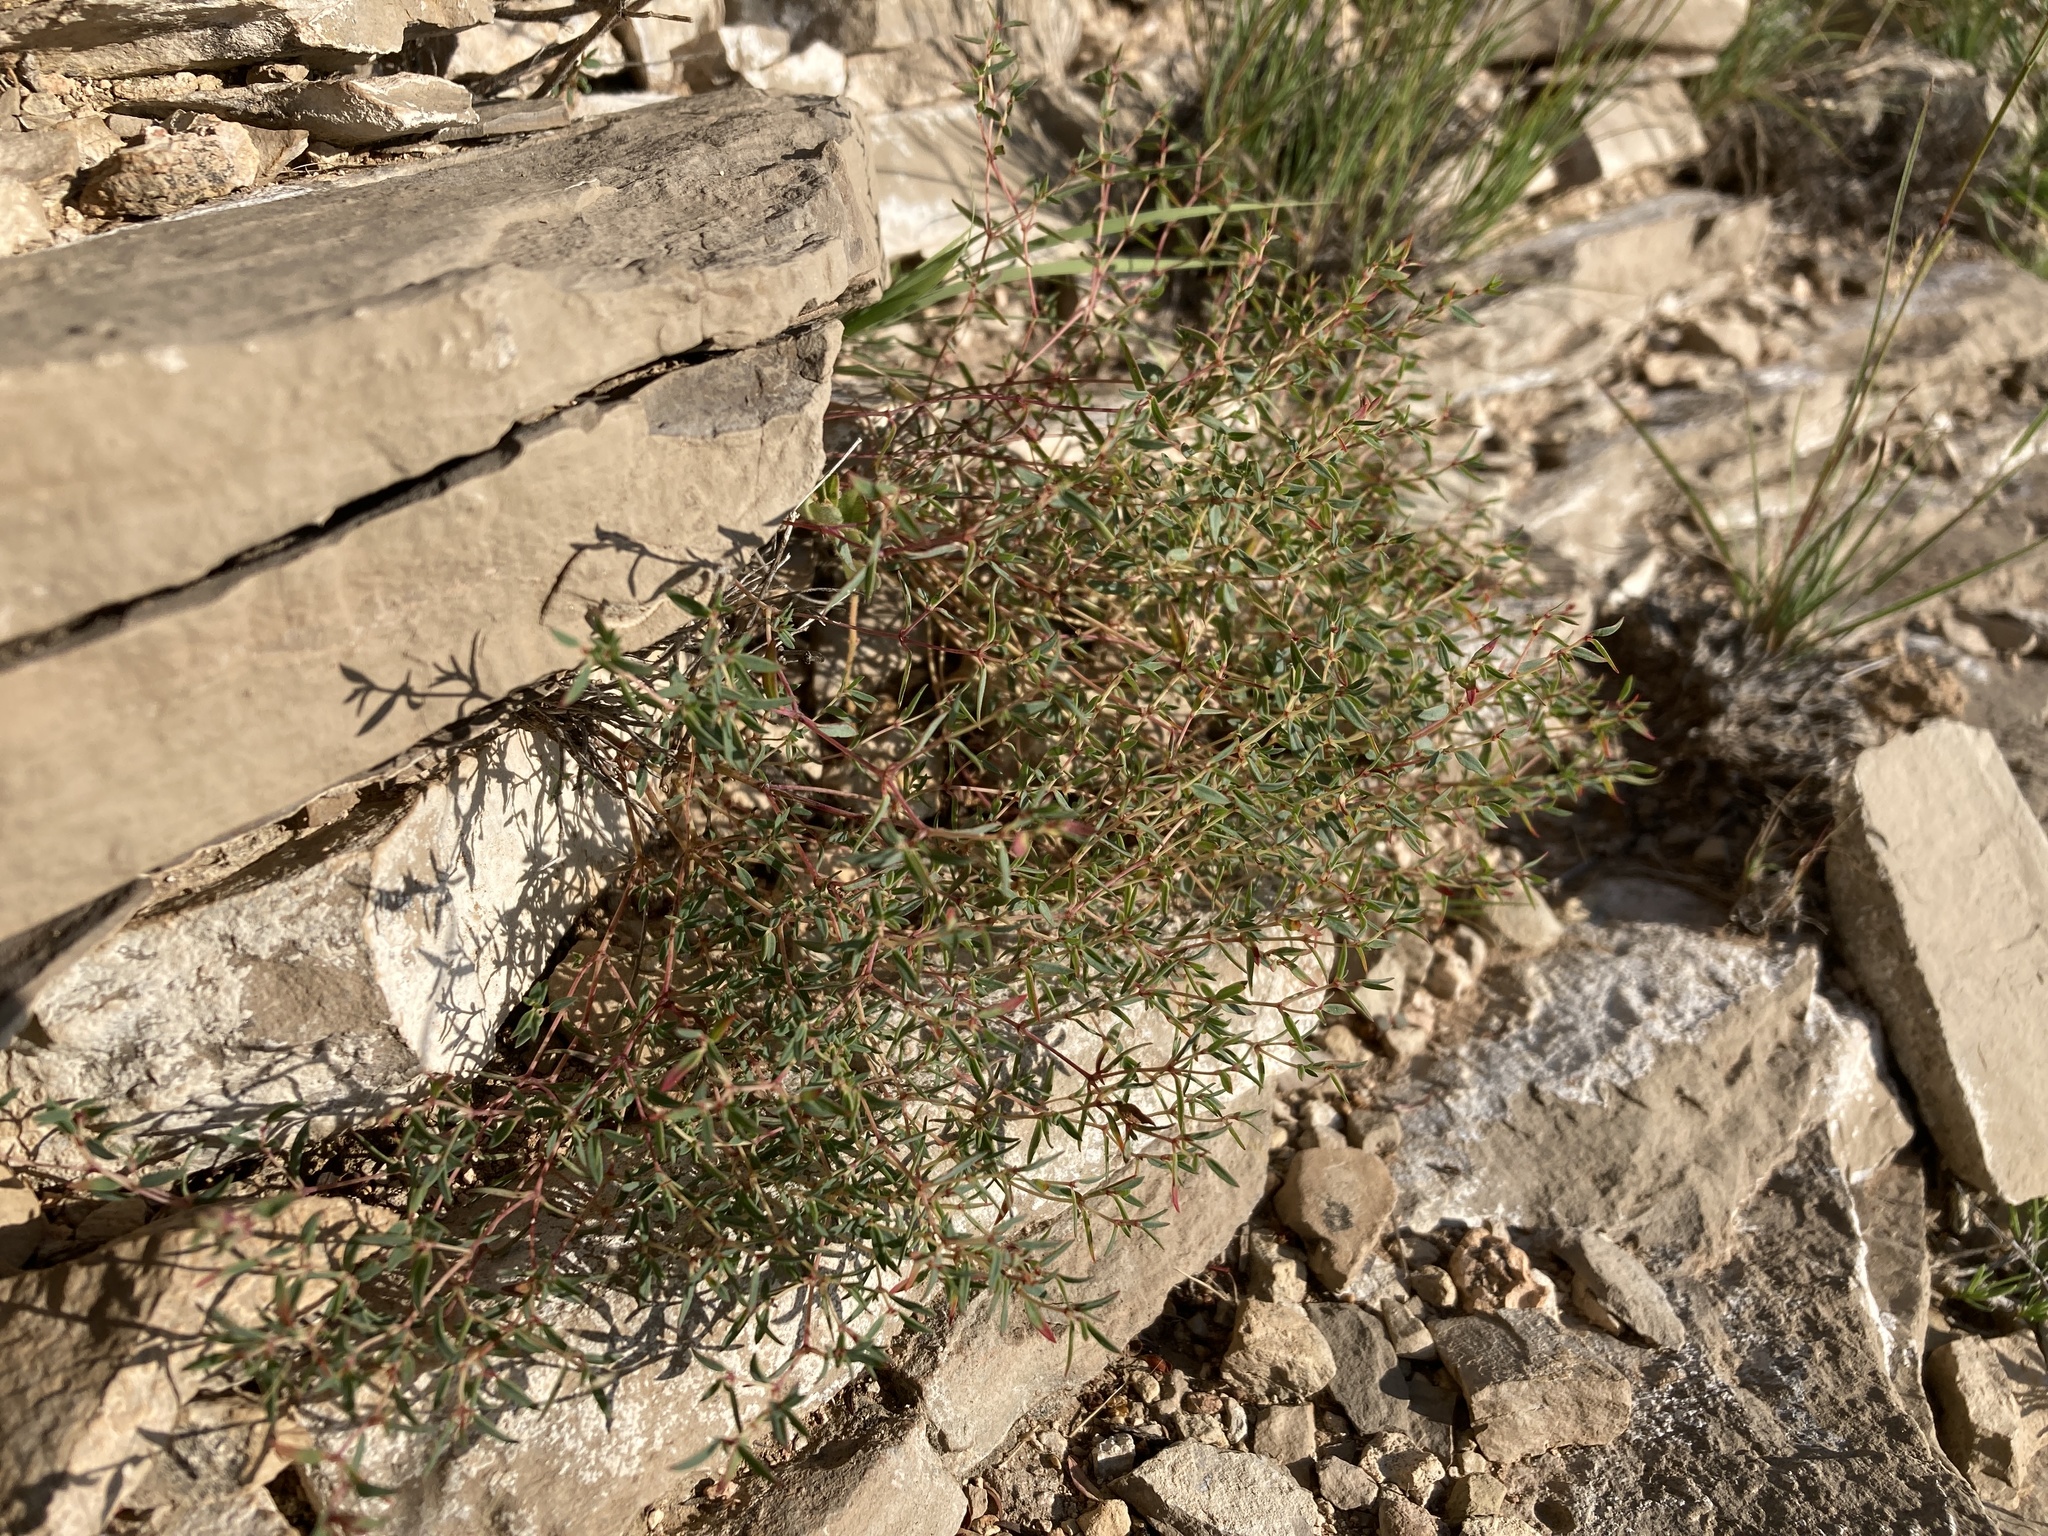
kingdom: Plantae
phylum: Tracheophyta
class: Magnoliopsida
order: Malpighiales
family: Euphorbiaceae
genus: Euphorbia
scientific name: Euphorbia chaetocalyx
